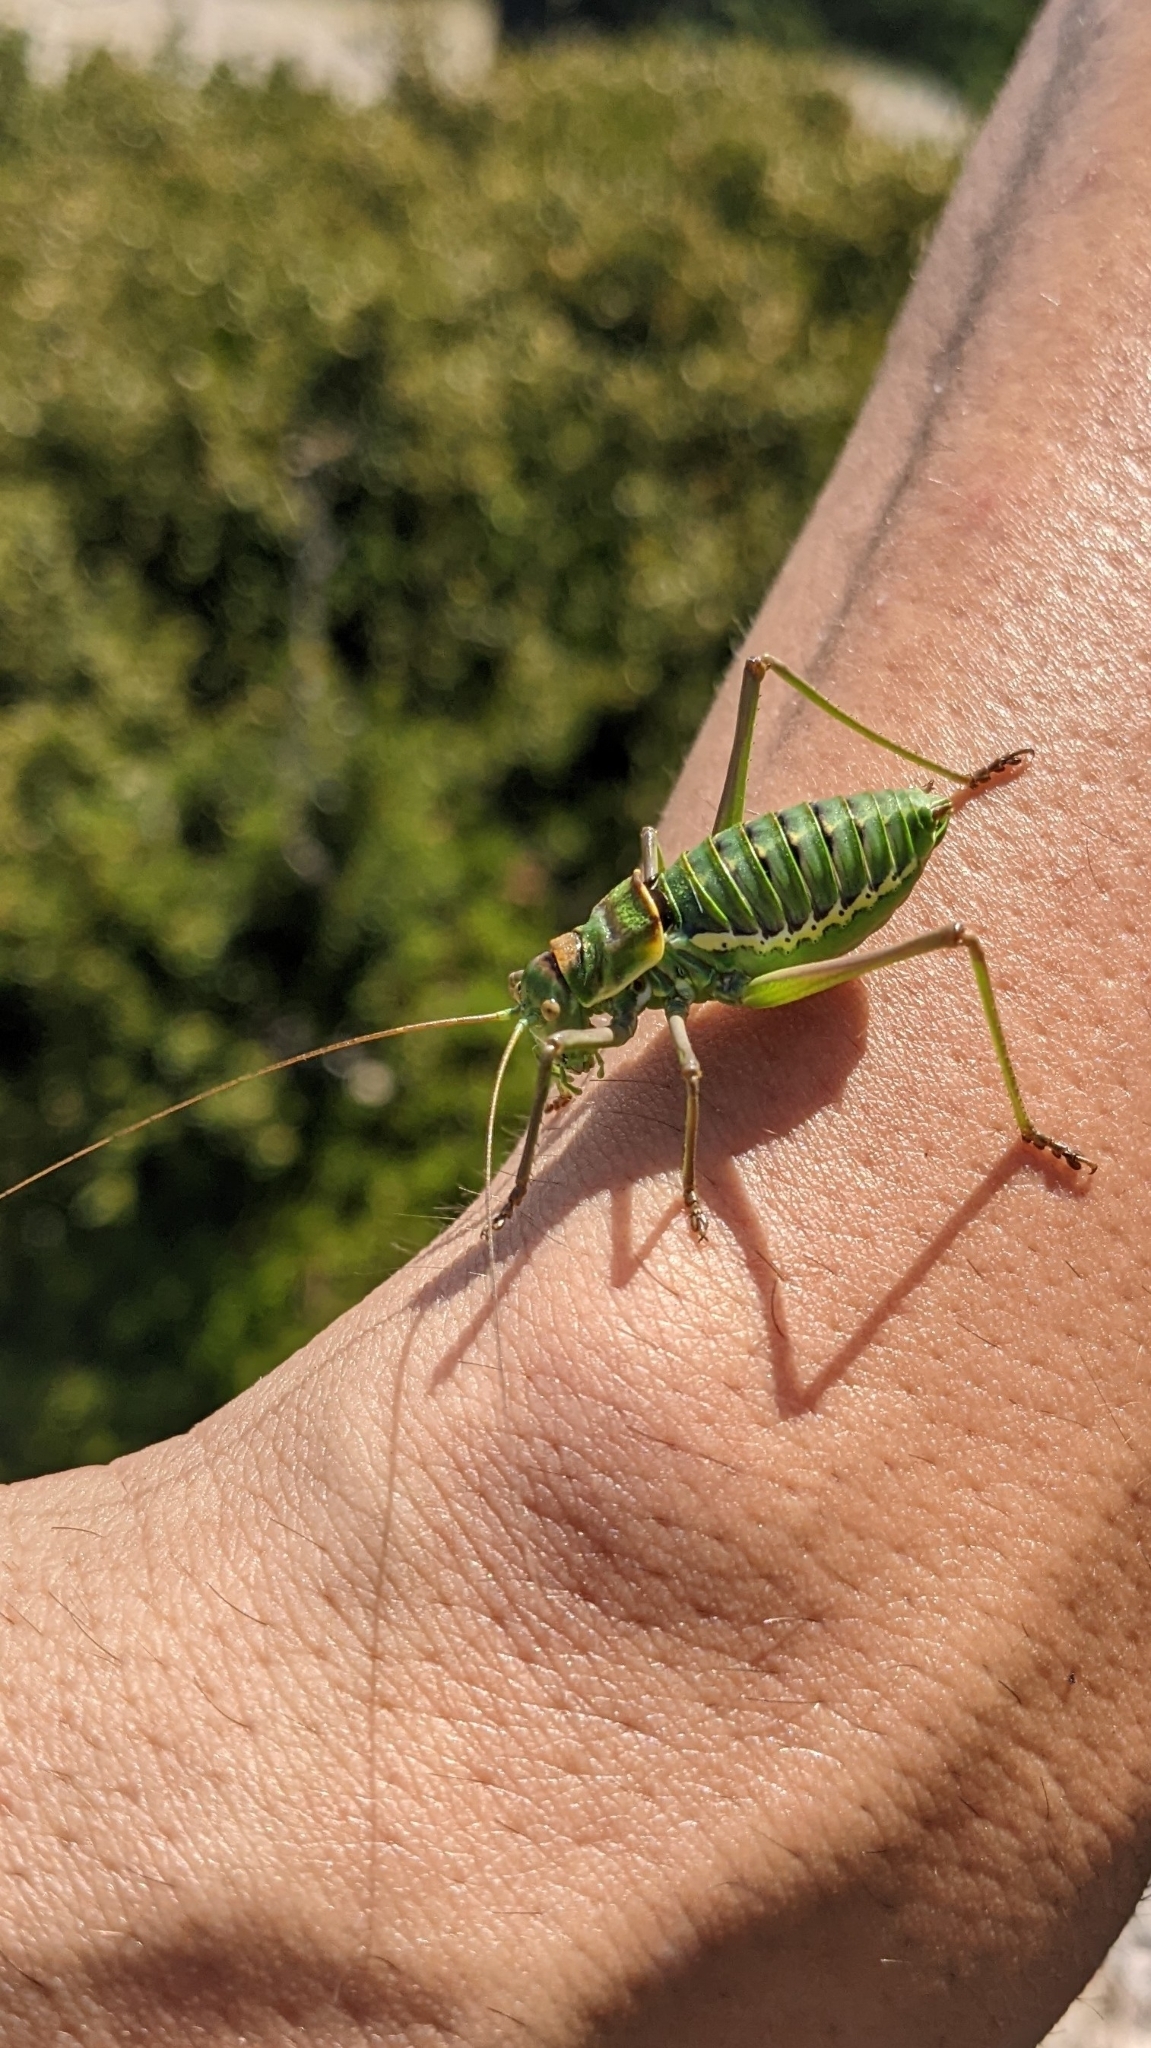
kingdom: Animalia
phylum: Arthropoda
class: Insecta
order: Orthoptera
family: Tettigoniidae
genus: Parasteropleurus
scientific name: Parasteropleurus perezii
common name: Perez's saddle bush-cricke
